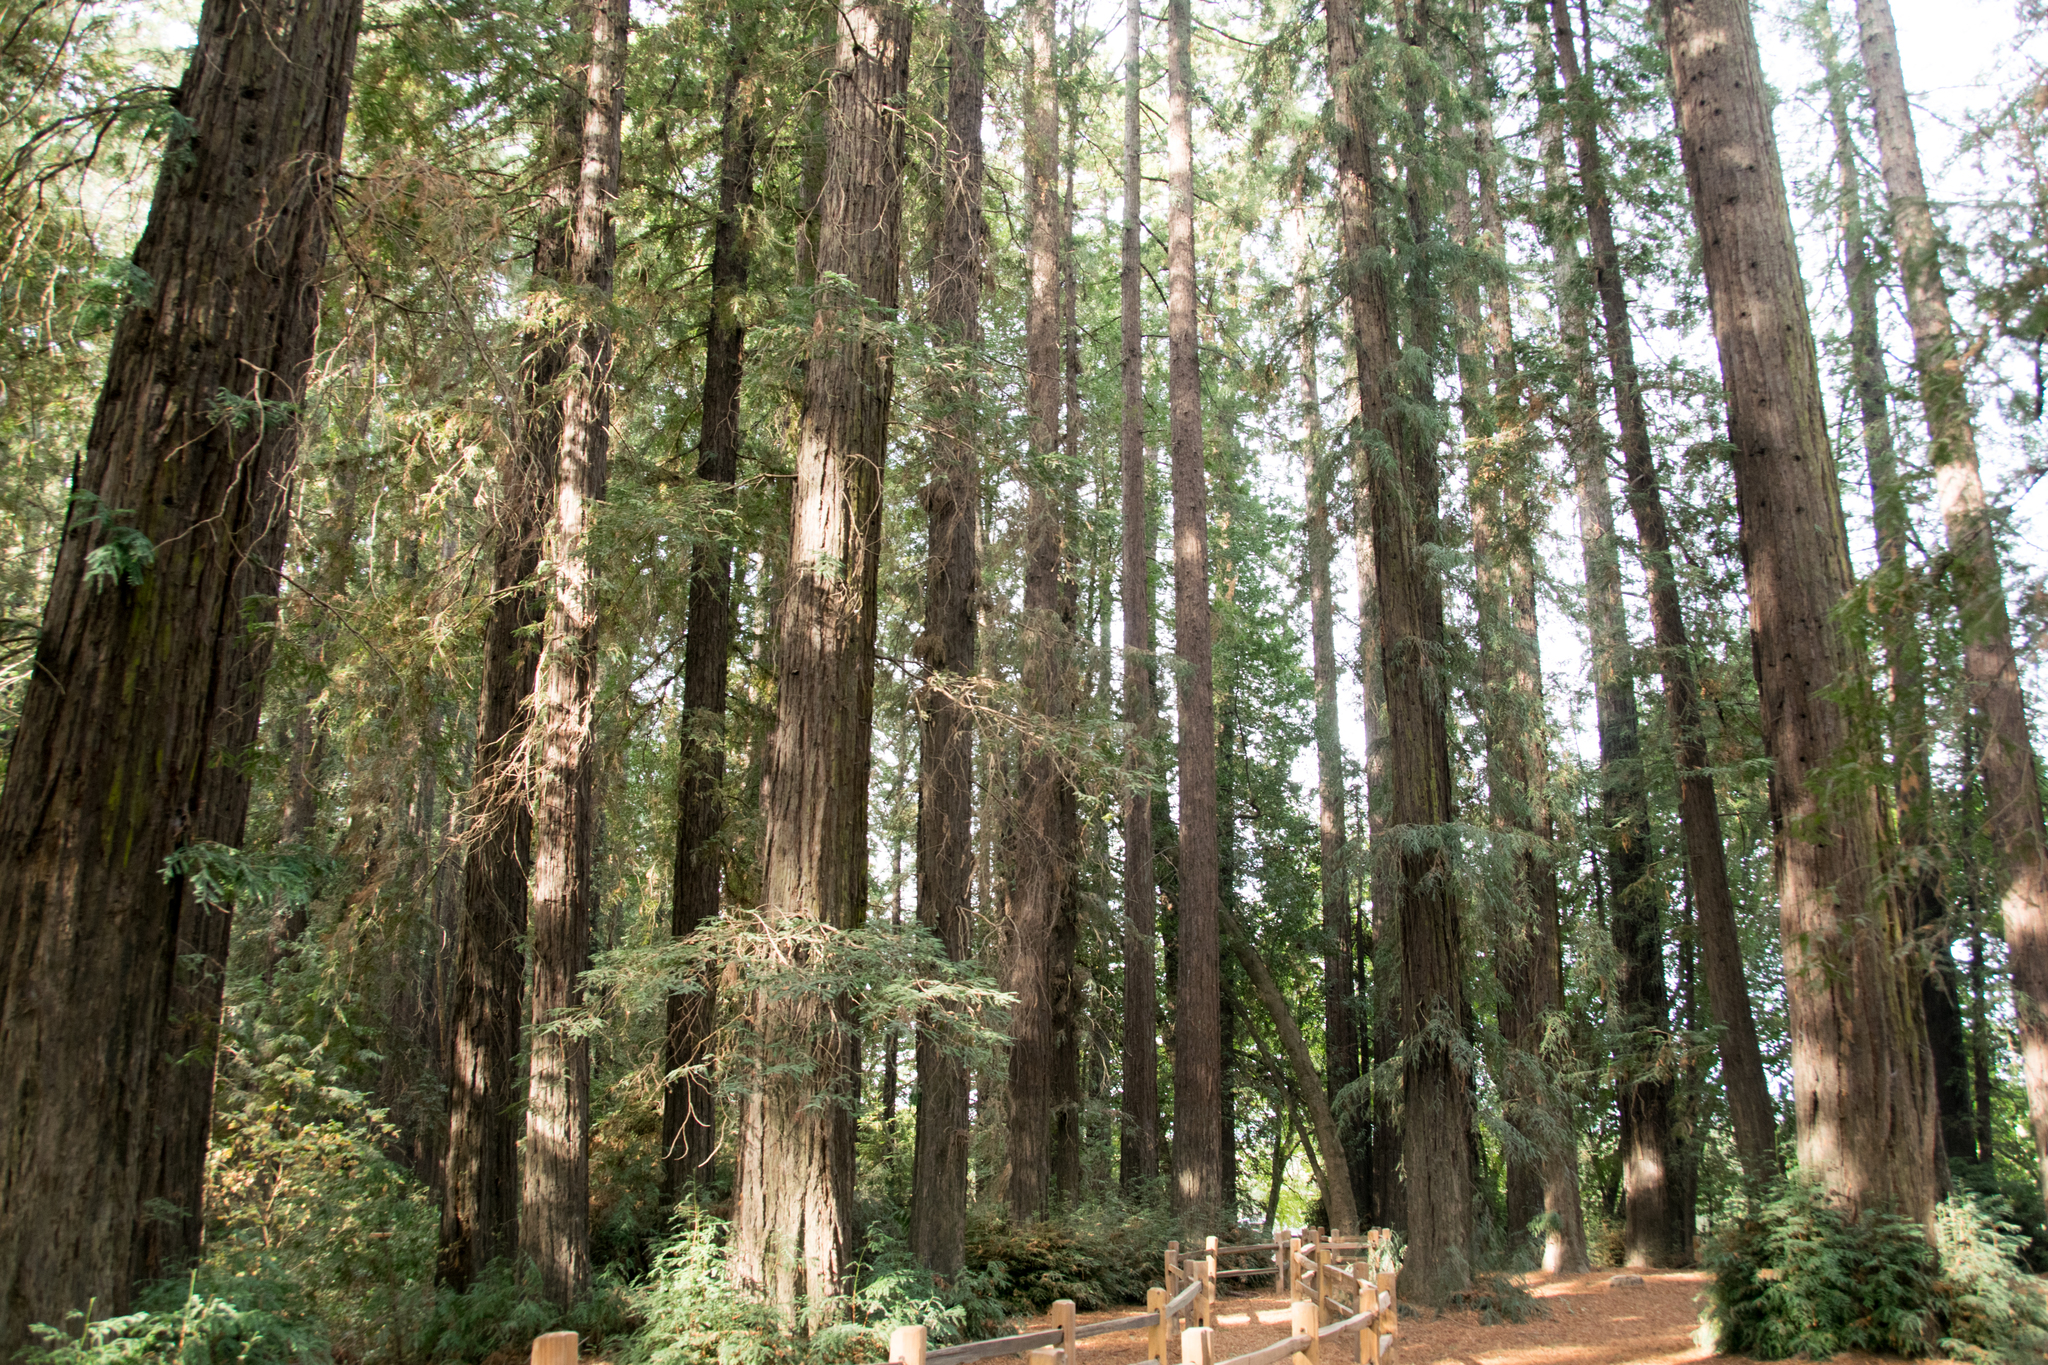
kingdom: Plantae
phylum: Tracheophyta
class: Pinopsida
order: Pinales
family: Cupressaceae
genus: Sequoia
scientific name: Sequoia sempervirens
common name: Coast redwood
